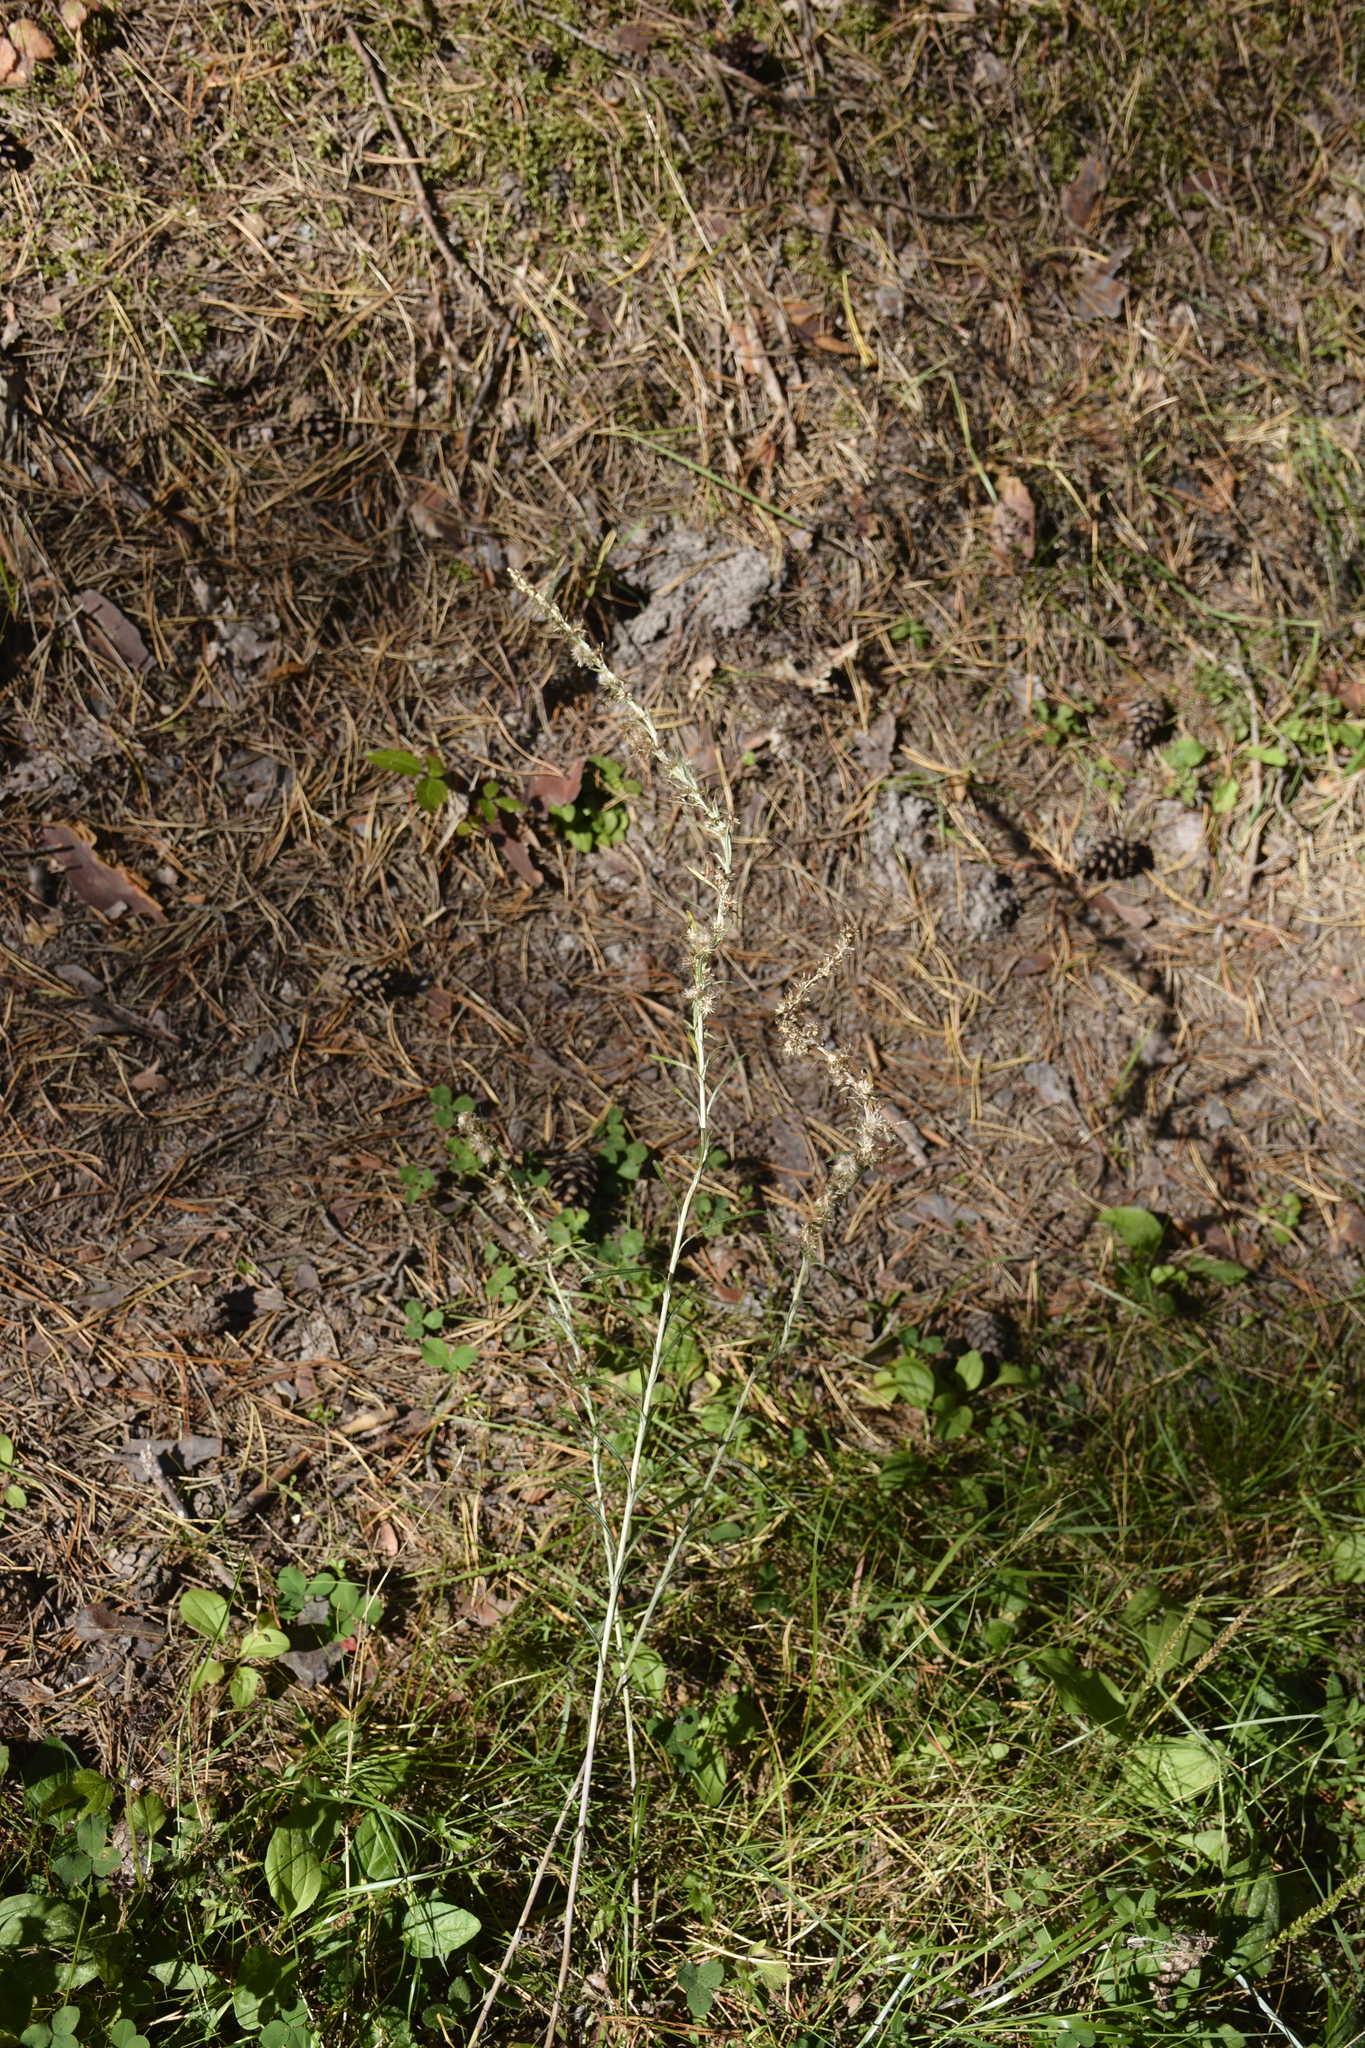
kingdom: Plantae
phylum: Tracheophyta
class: Magnoliopsida
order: Asterales
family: Asteraceae
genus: Omalotheca
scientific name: Omalotheca sylvatica
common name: Heath cudweed
